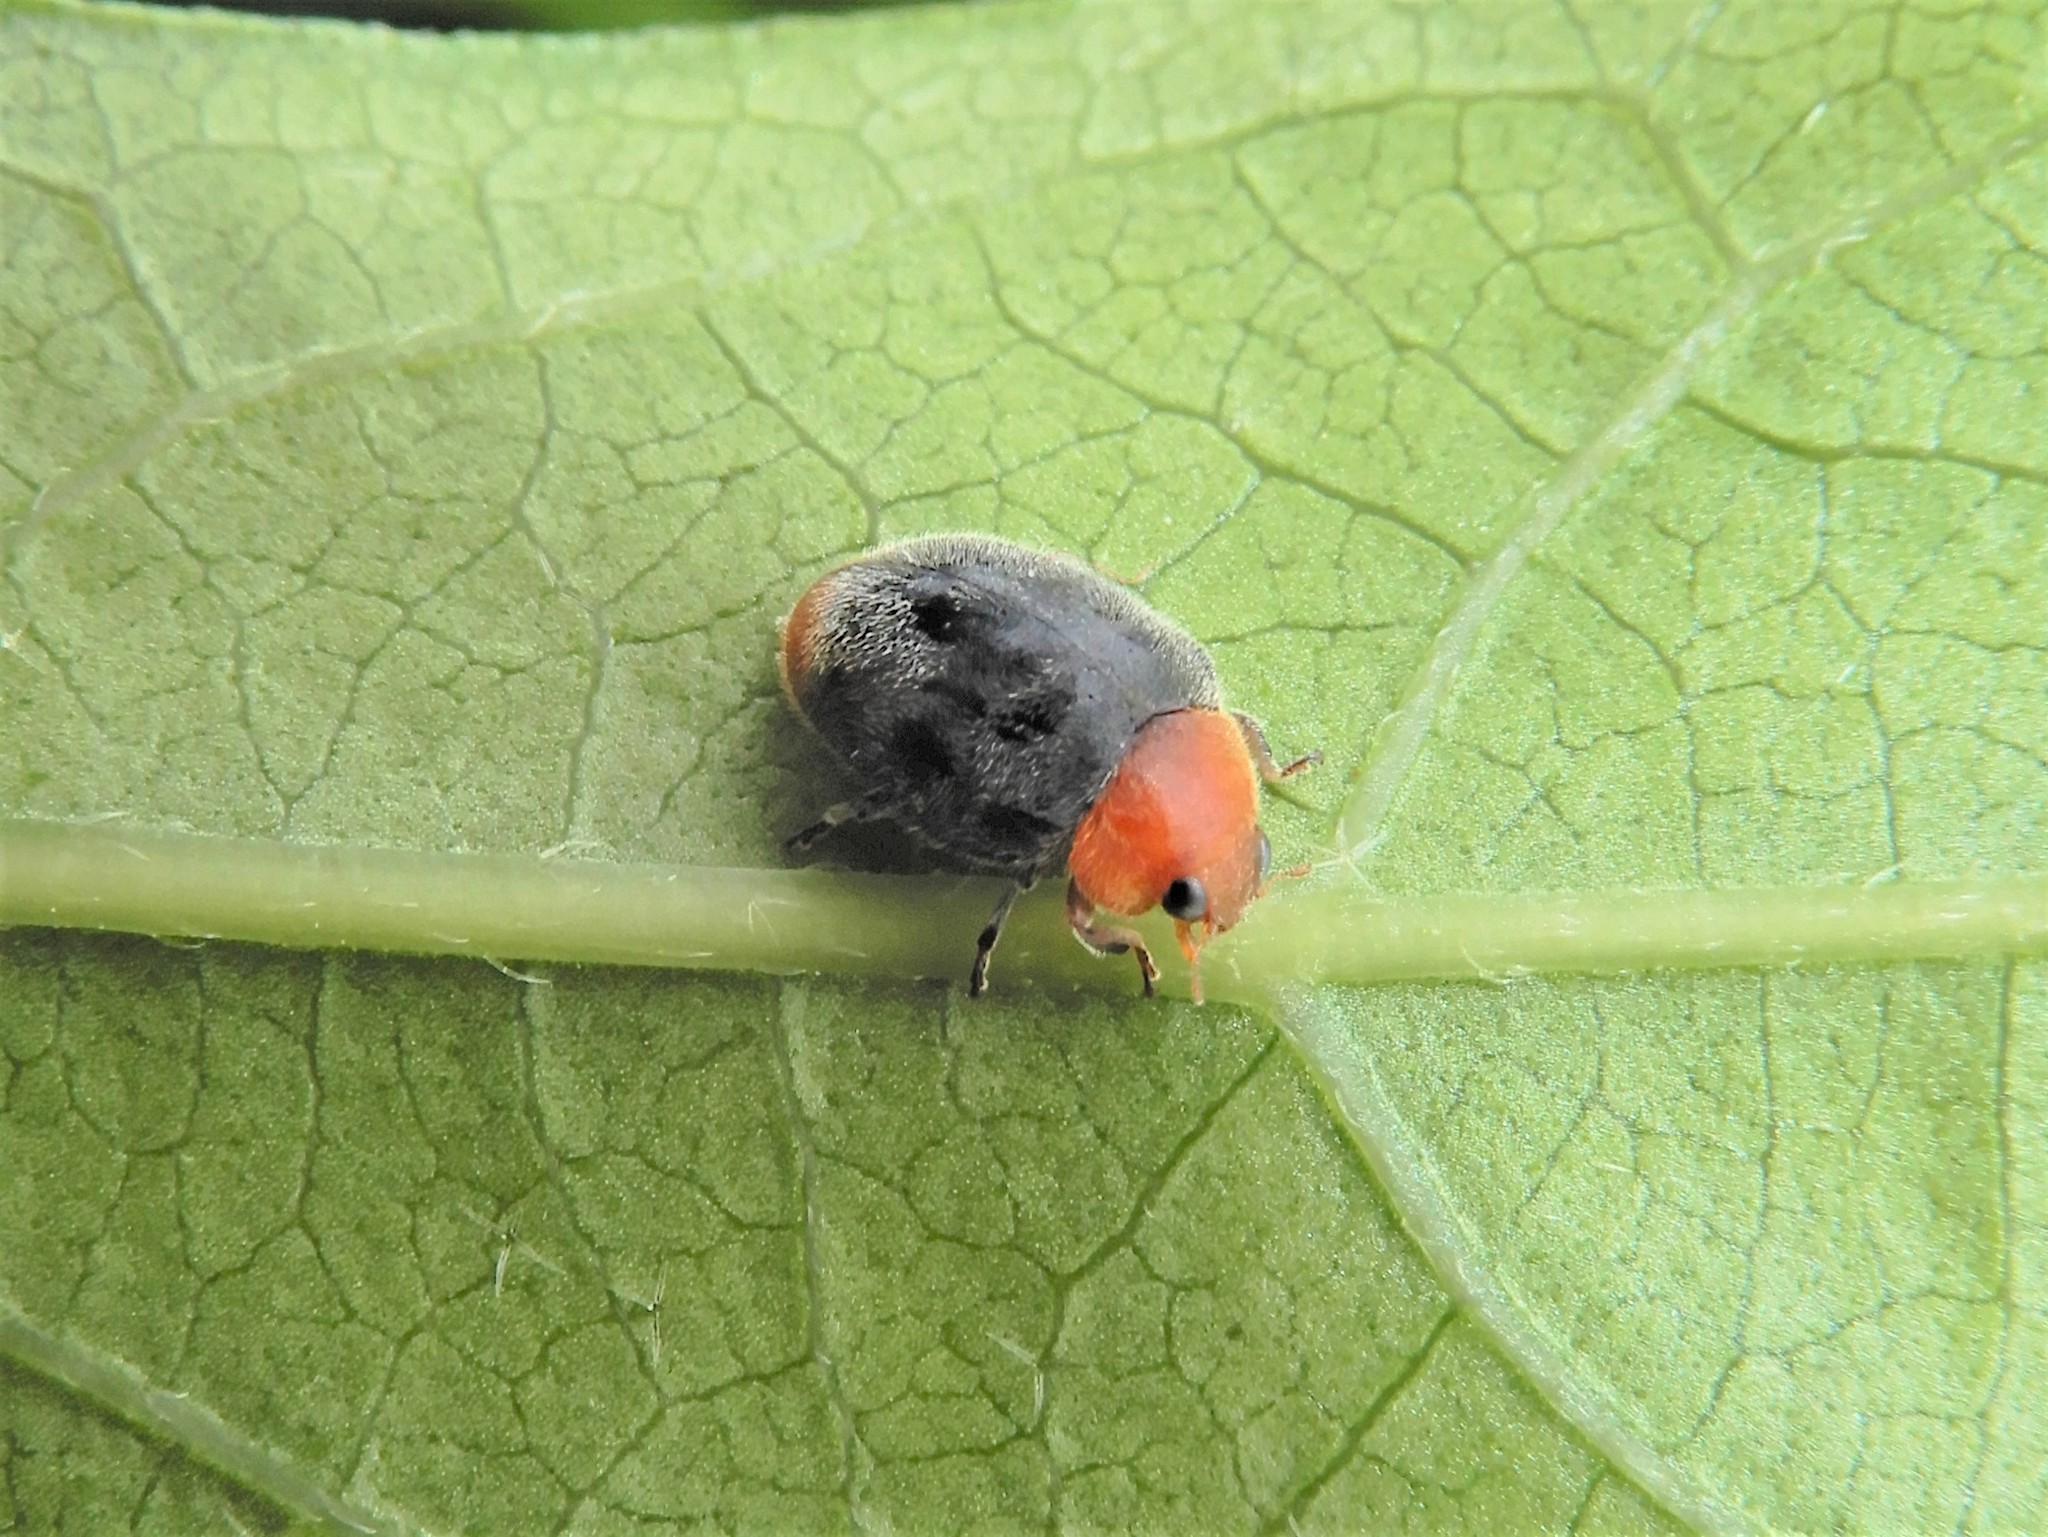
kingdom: Animalia
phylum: Arthropoda
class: Insecta
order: Coleoptera
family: Coccinellidae
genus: Cryptolaemus
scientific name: Cryptolaemus montrouzieri
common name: Mealybug destroyer
